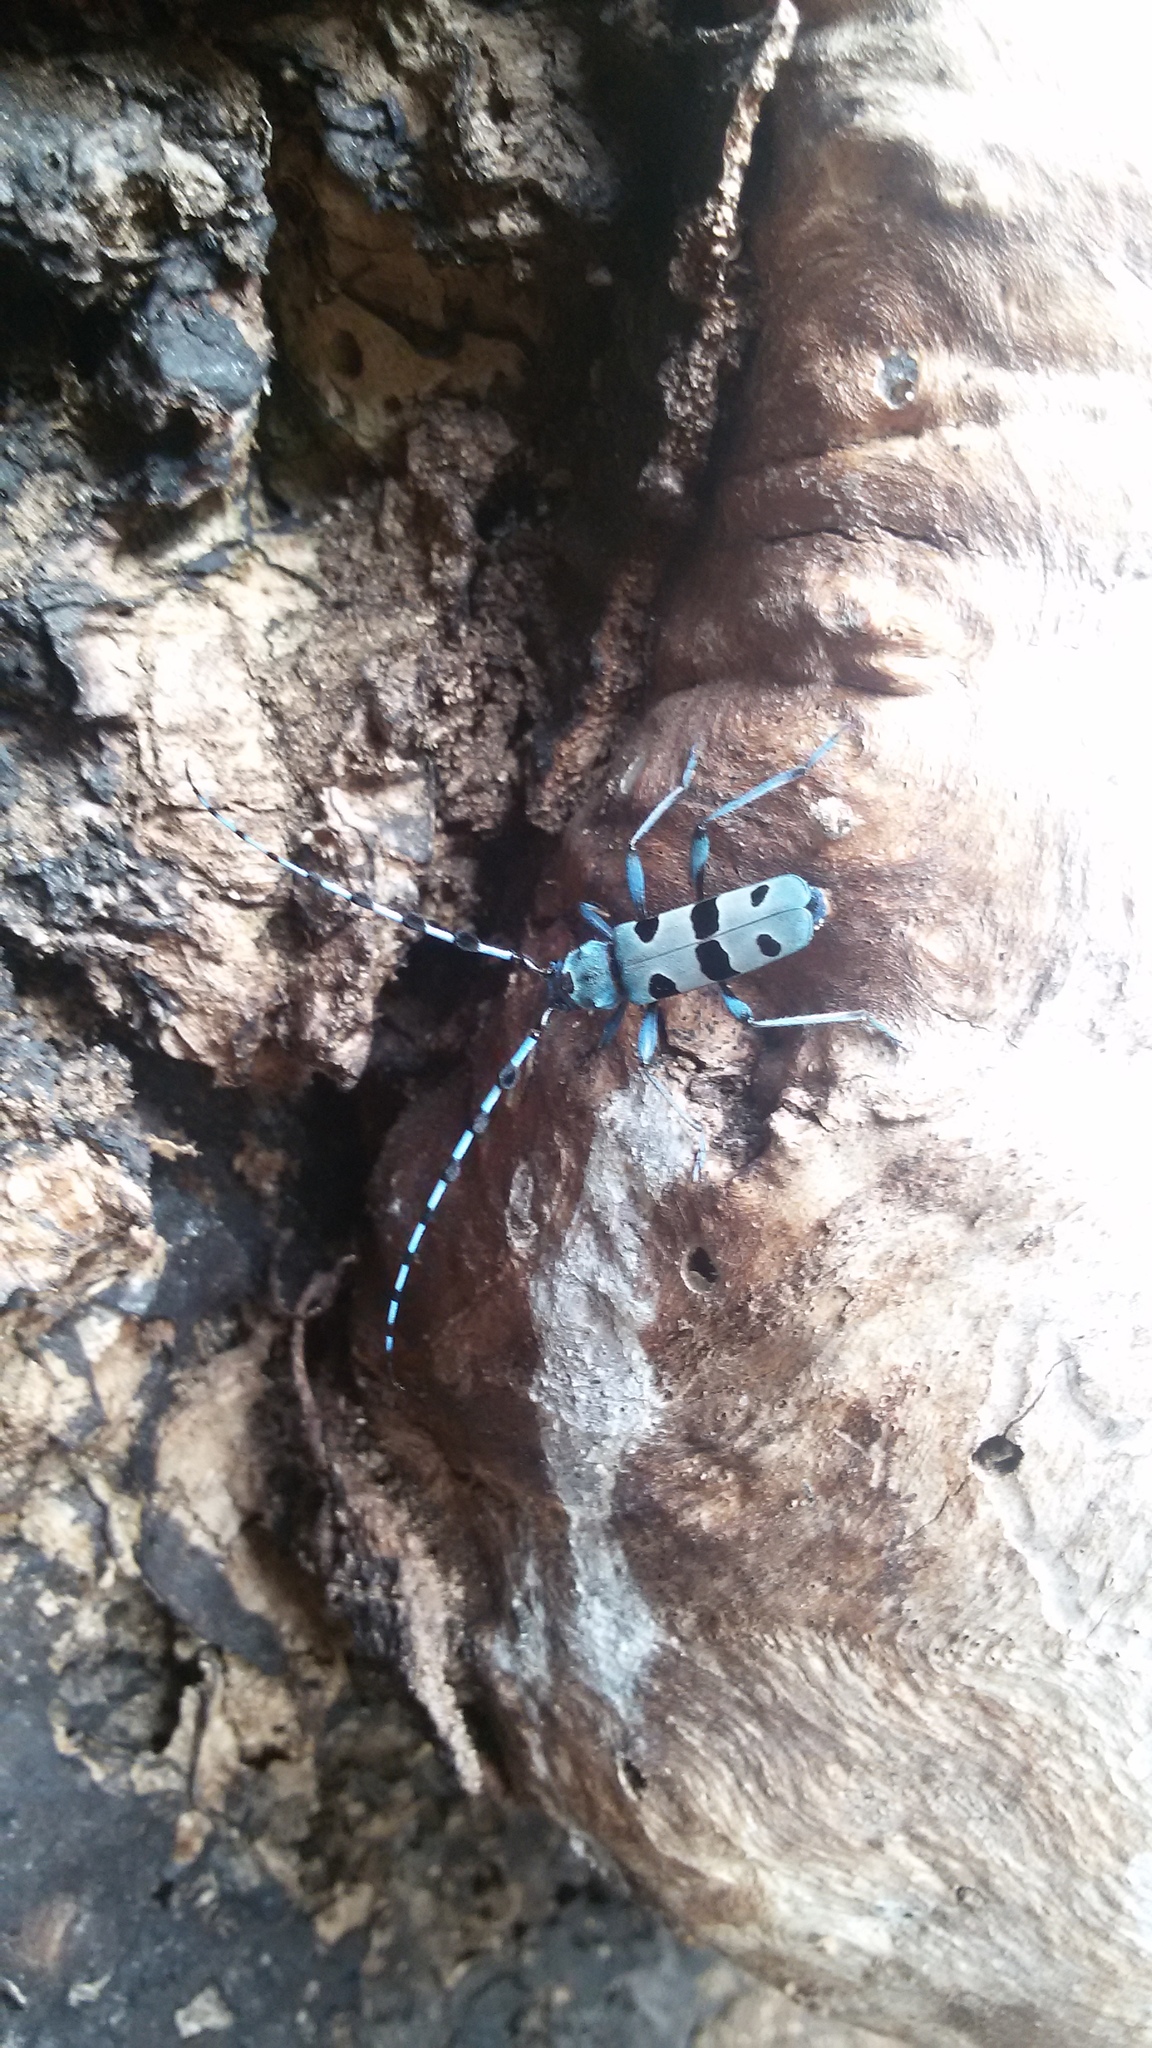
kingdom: Animalia
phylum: Arthropoda
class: Insecta
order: Coleoptera
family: Cerambycidae
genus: Rosalia
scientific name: Rosalia alpina
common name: Rosalia longicorn
